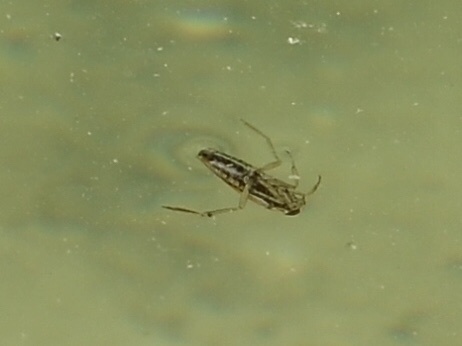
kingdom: Animalia
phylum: Arthropoda
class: Insecta
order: Hemiptera
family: Notonectidae
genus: Notonecta
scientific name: Notonecta
